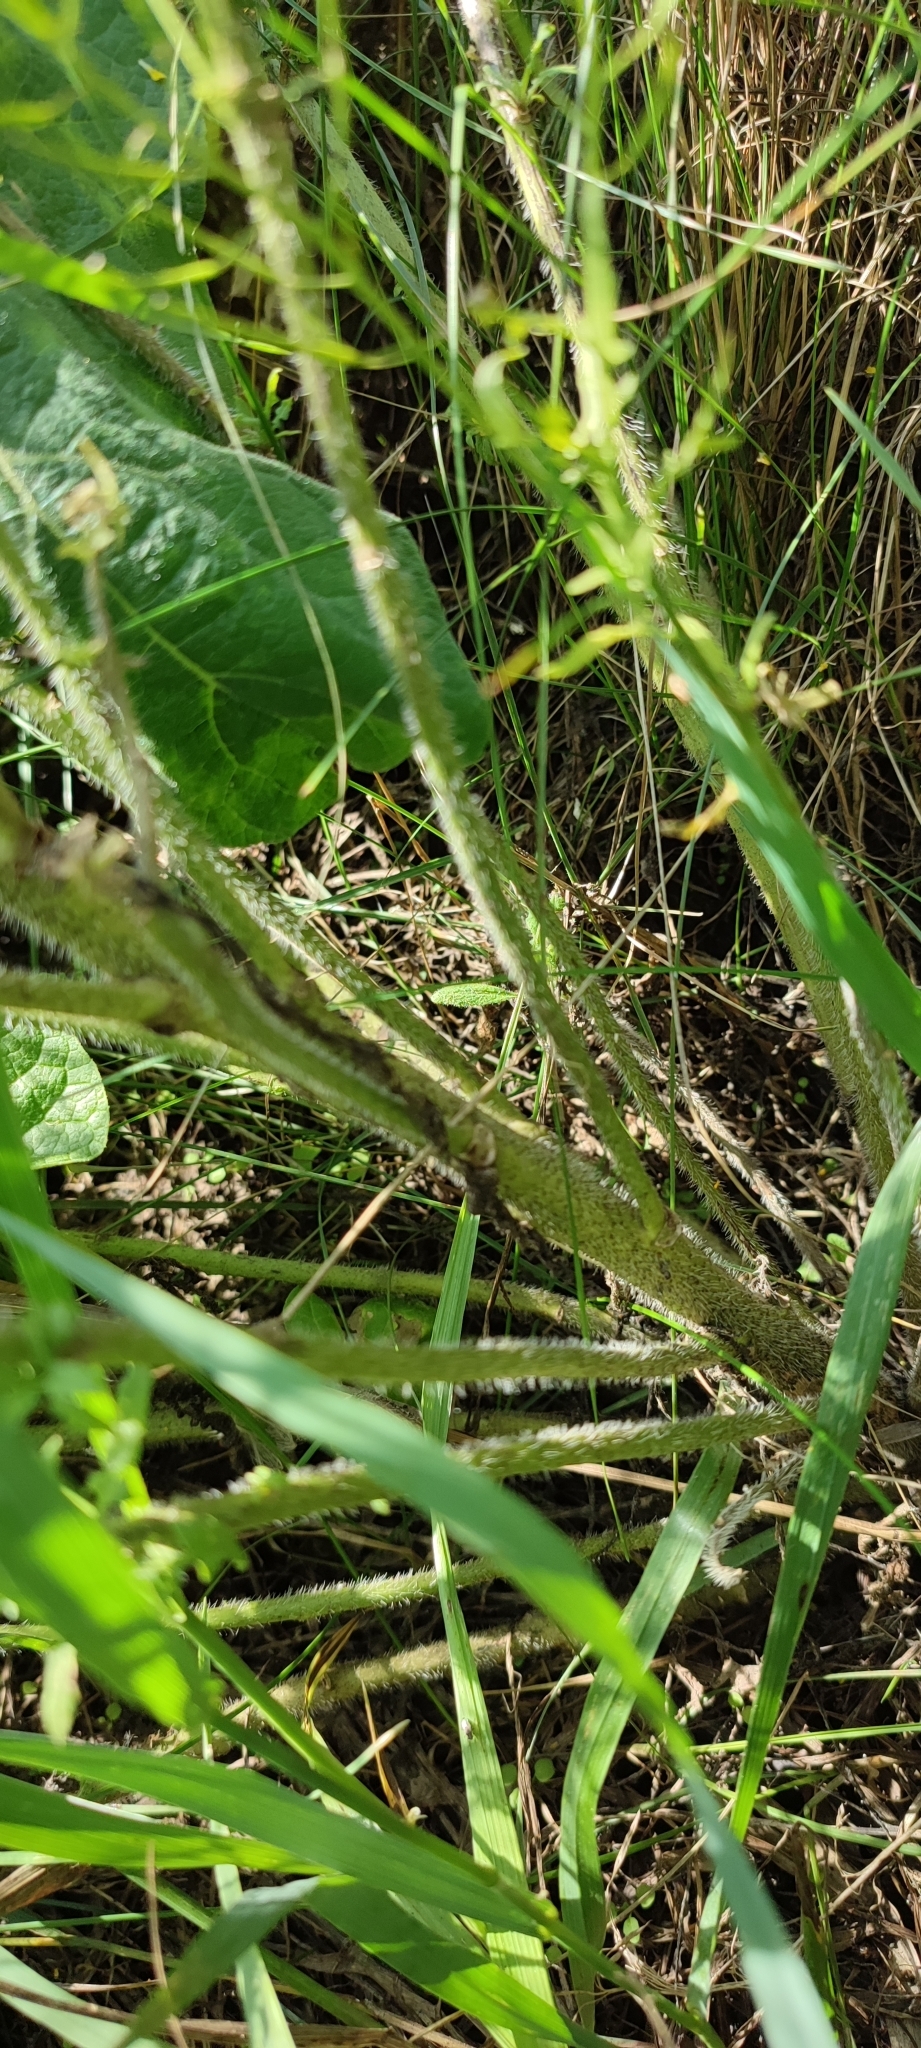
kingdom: Plantae
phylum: Tracheophyta
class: Magnoliopsida
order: Brassicales
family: Brassicaceae
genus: Sisymbrium
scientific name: Sisymbrium loeselii
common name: False london-rocket
